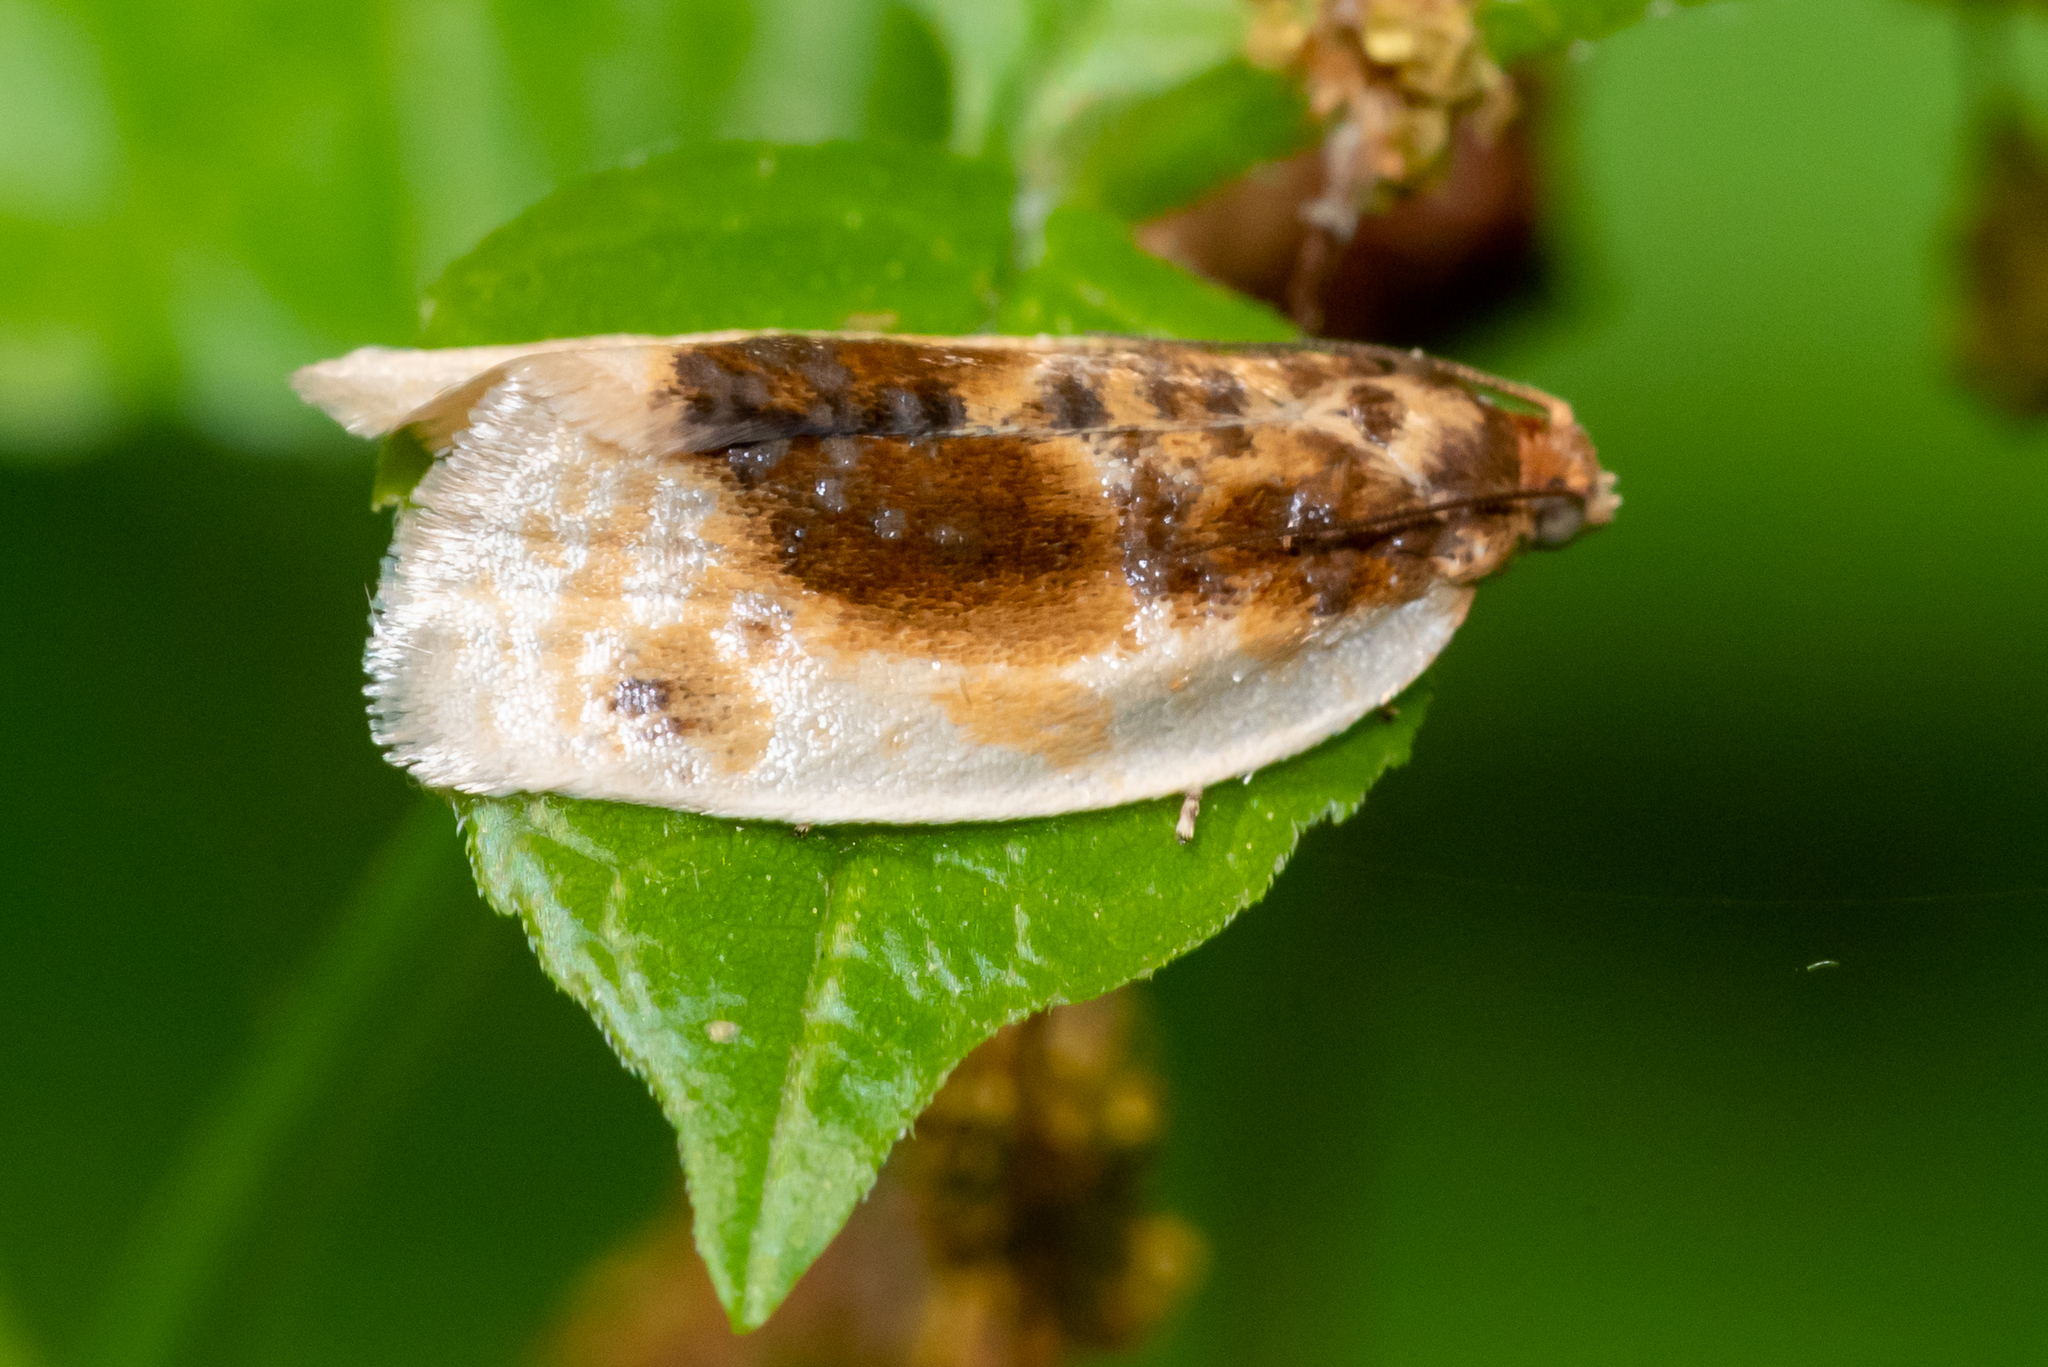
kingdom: Animalia
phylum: Arthropoda
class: Insecta
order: Lepidoptera
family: Tortricidae
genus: Clepsis
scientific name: Clepsis melaleucanus
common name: American apple tortrix
